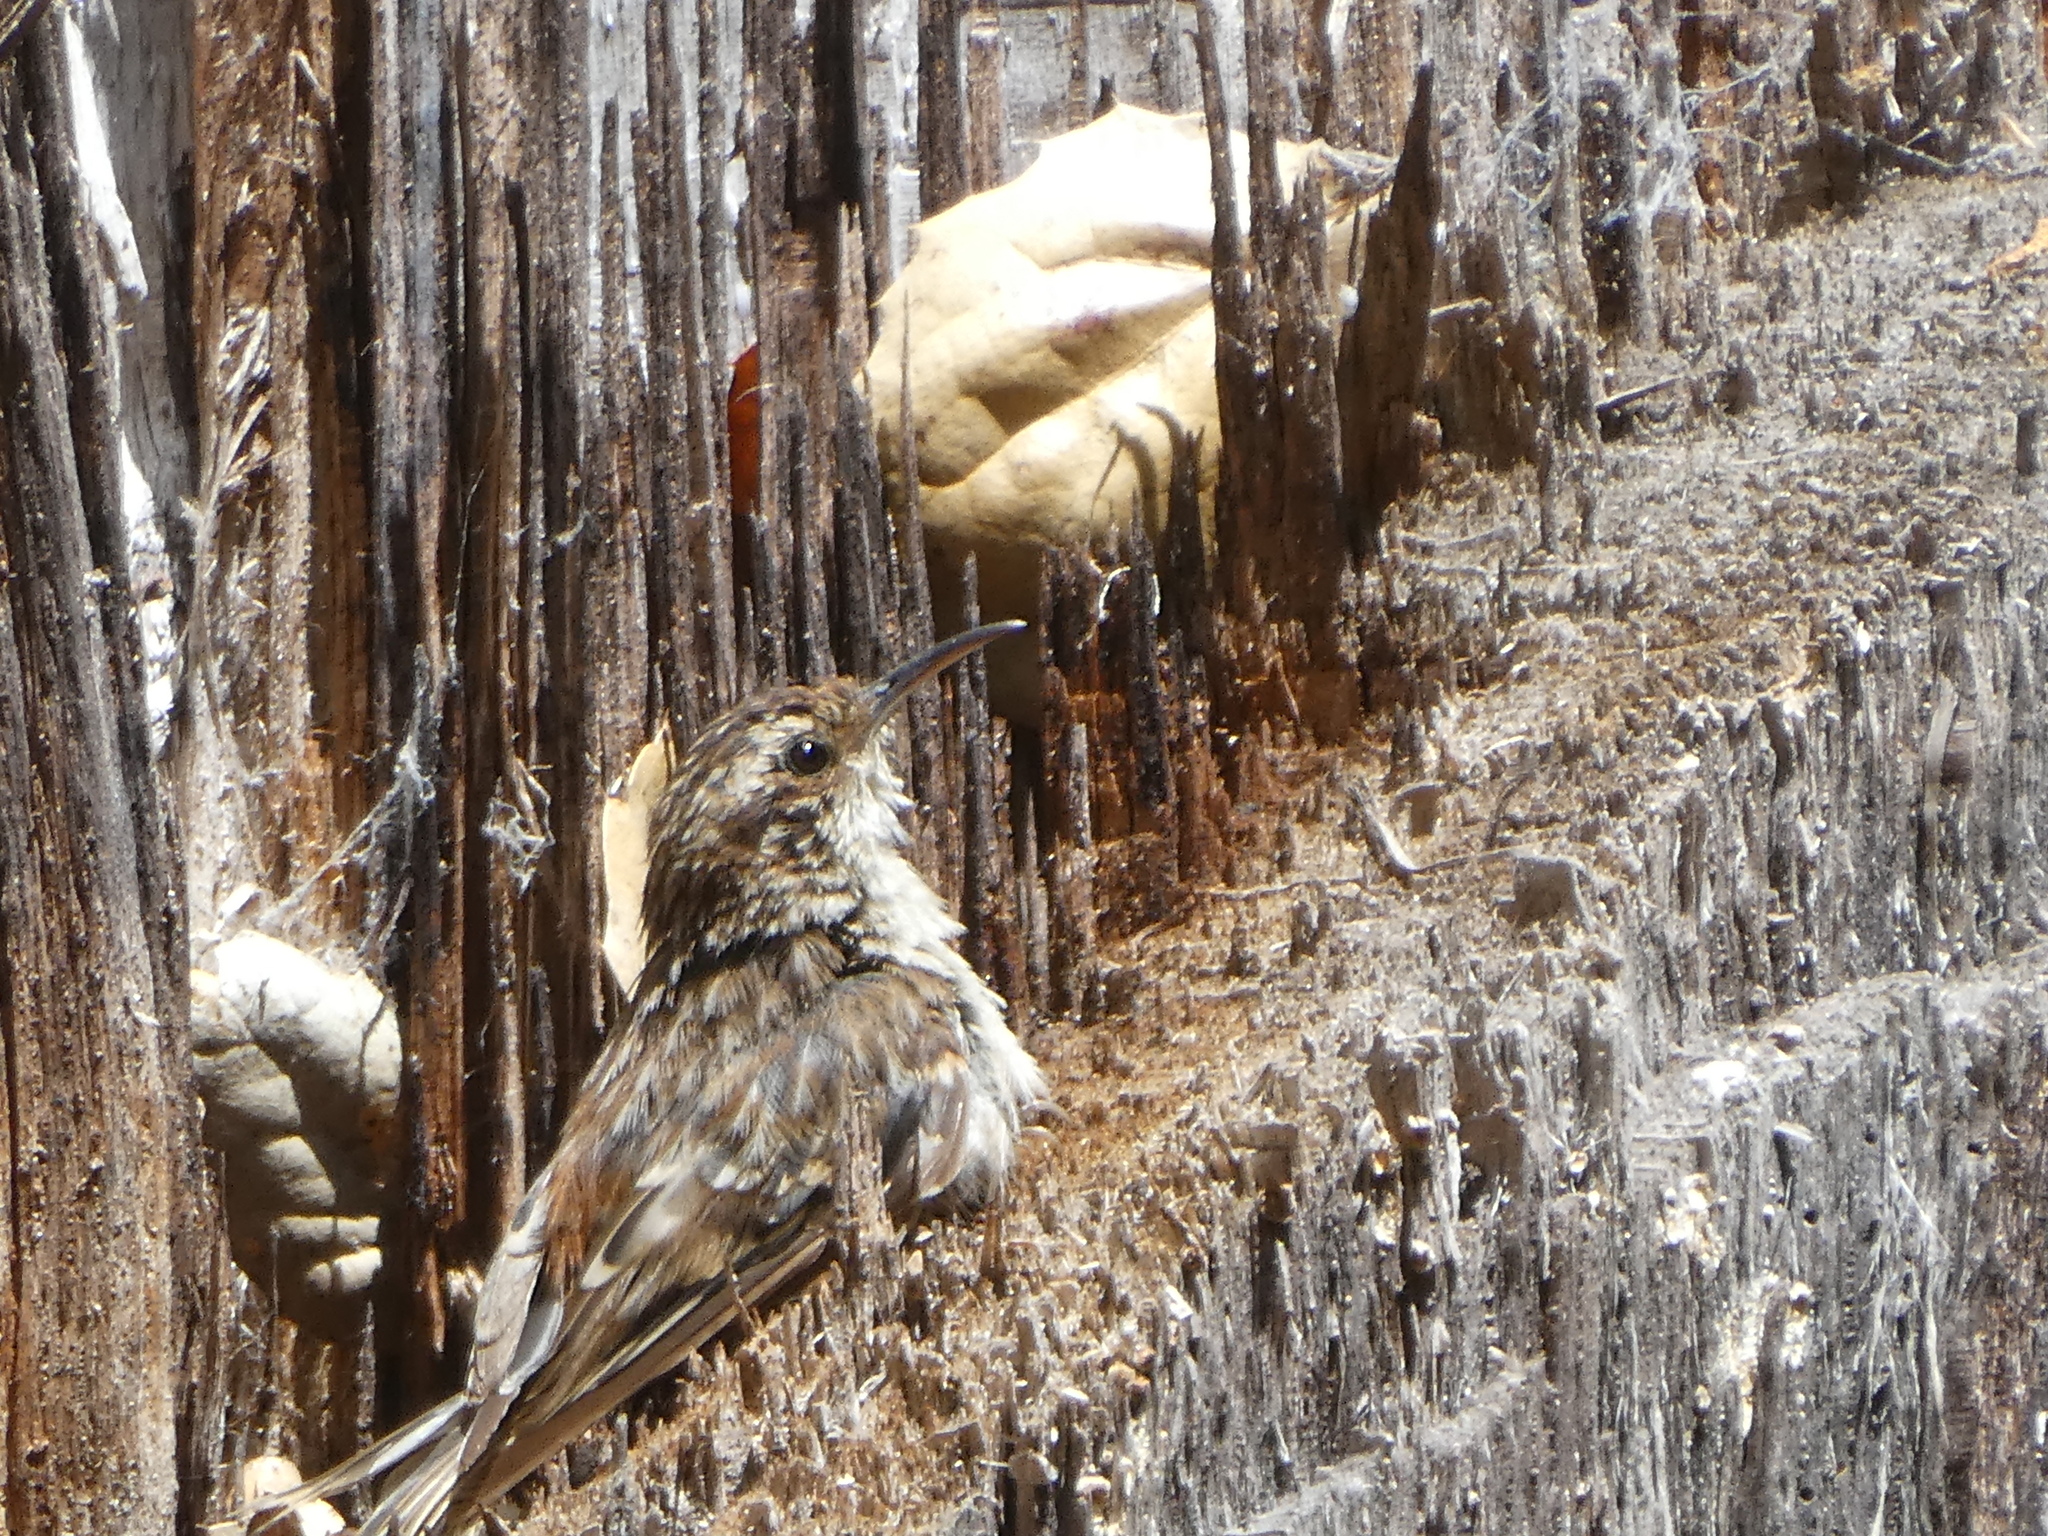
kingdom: Animalia
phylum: Chordata
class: Aves
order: Passeriformes
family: Certhiidae
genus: Certhia
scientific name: Certhia americana
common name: Brown creeper
